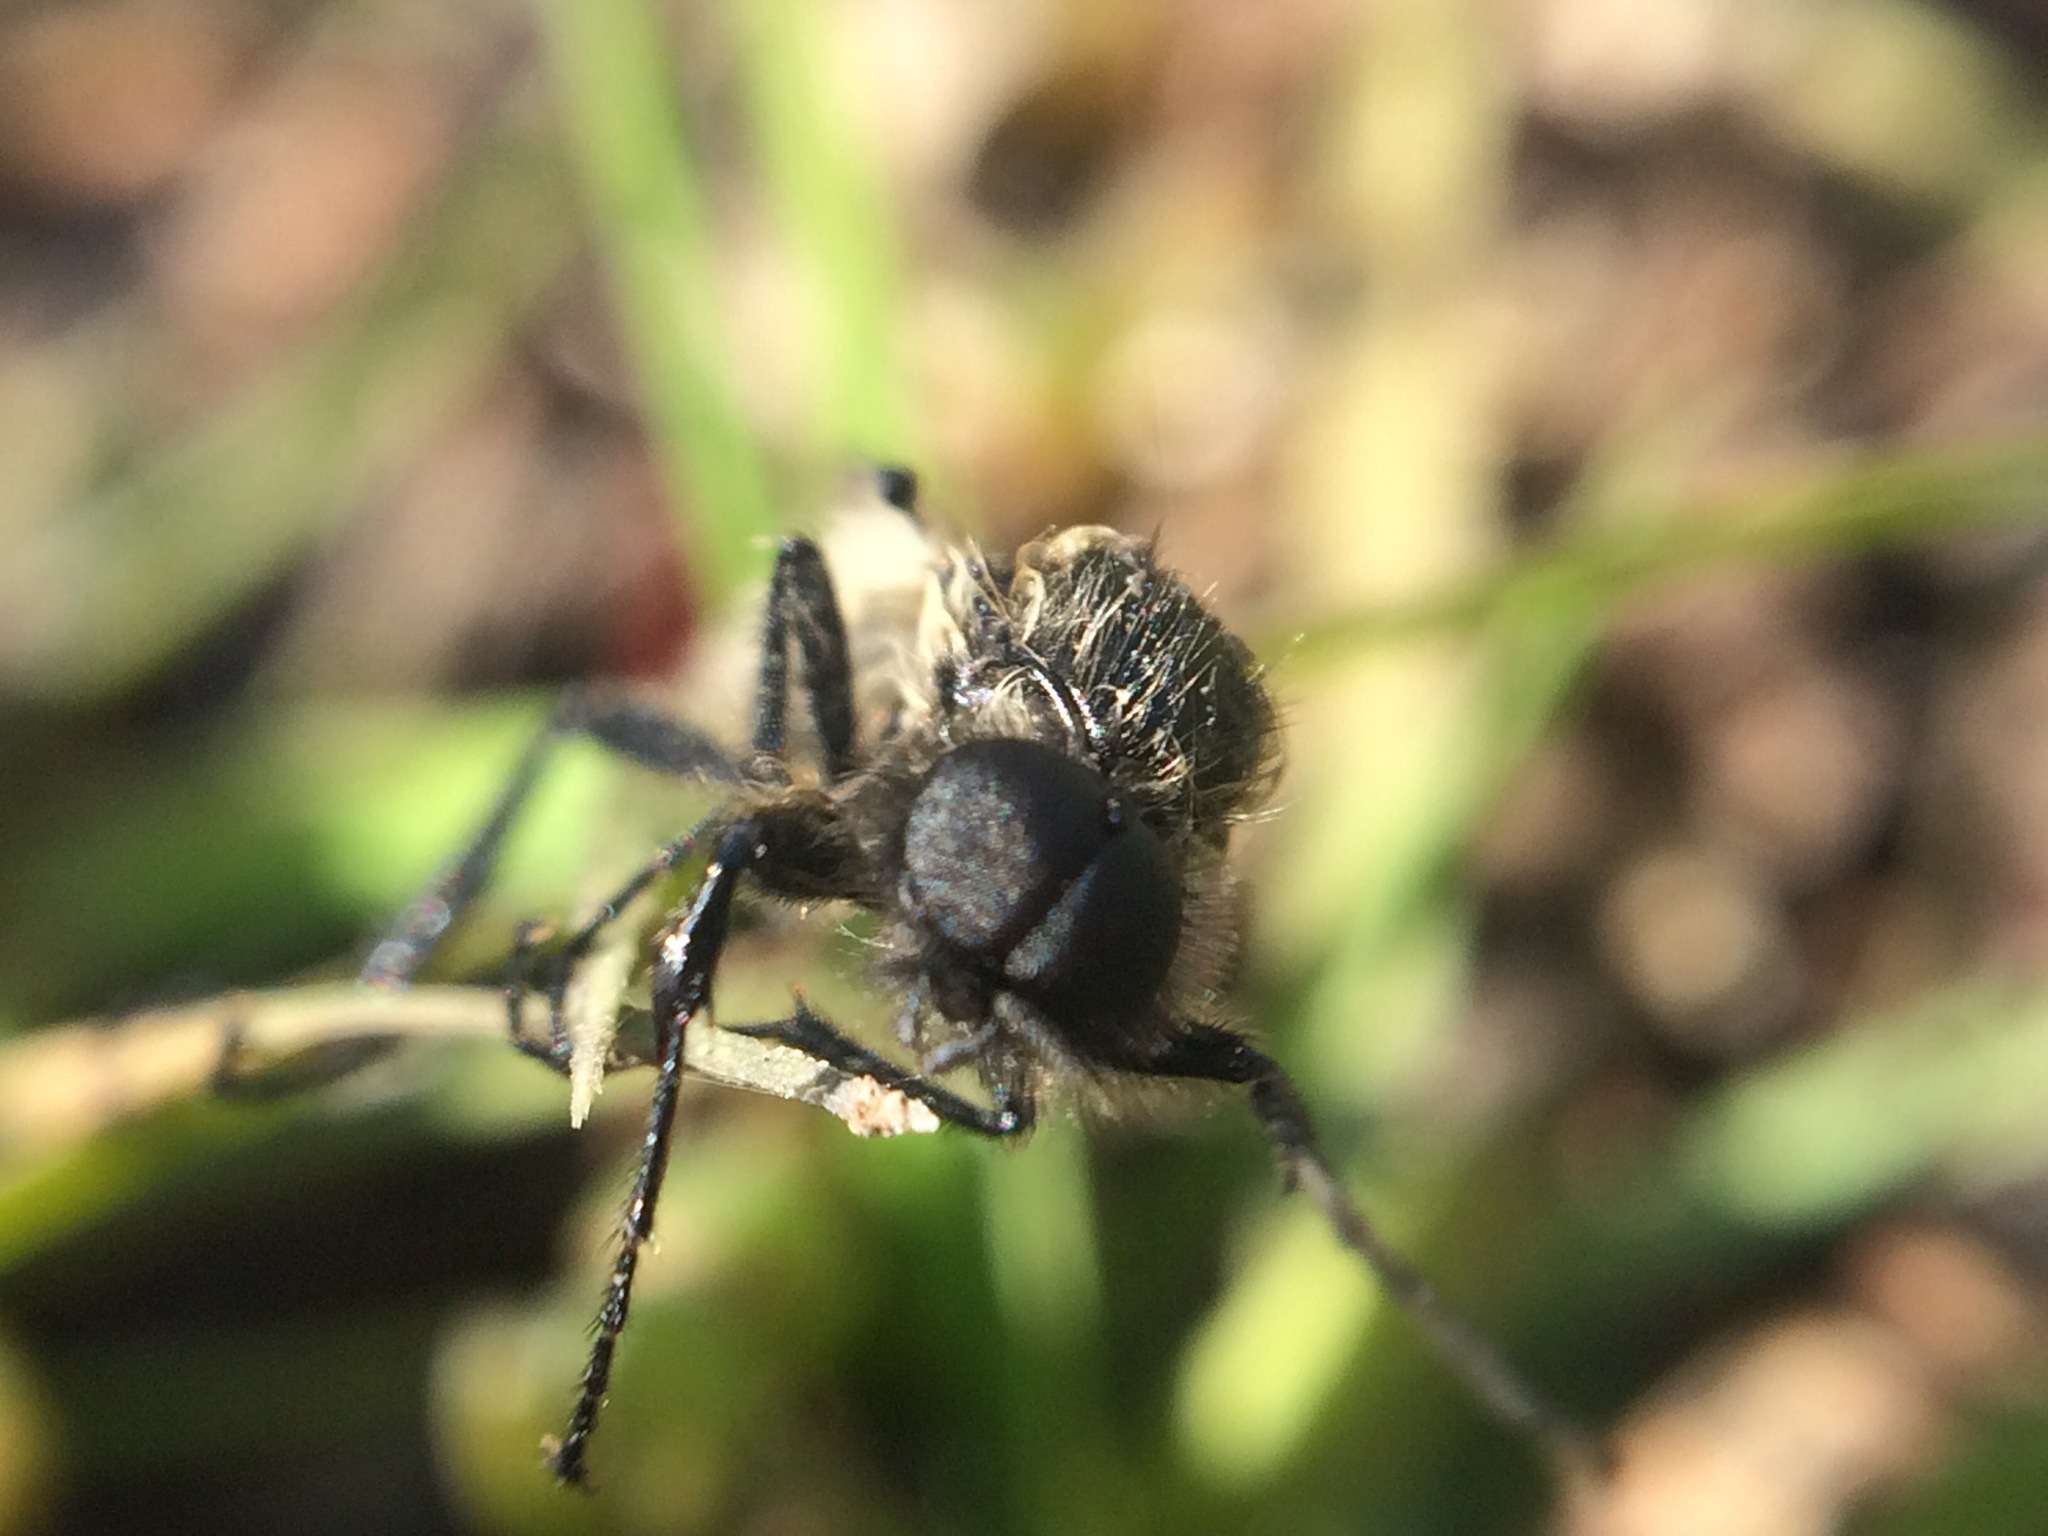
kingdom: Animalia
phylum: Arthropoda
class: Insecta
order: Diptera
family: Bibionidae
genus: Bibio
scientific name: Bibio albipennis
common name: White-winged march fly
